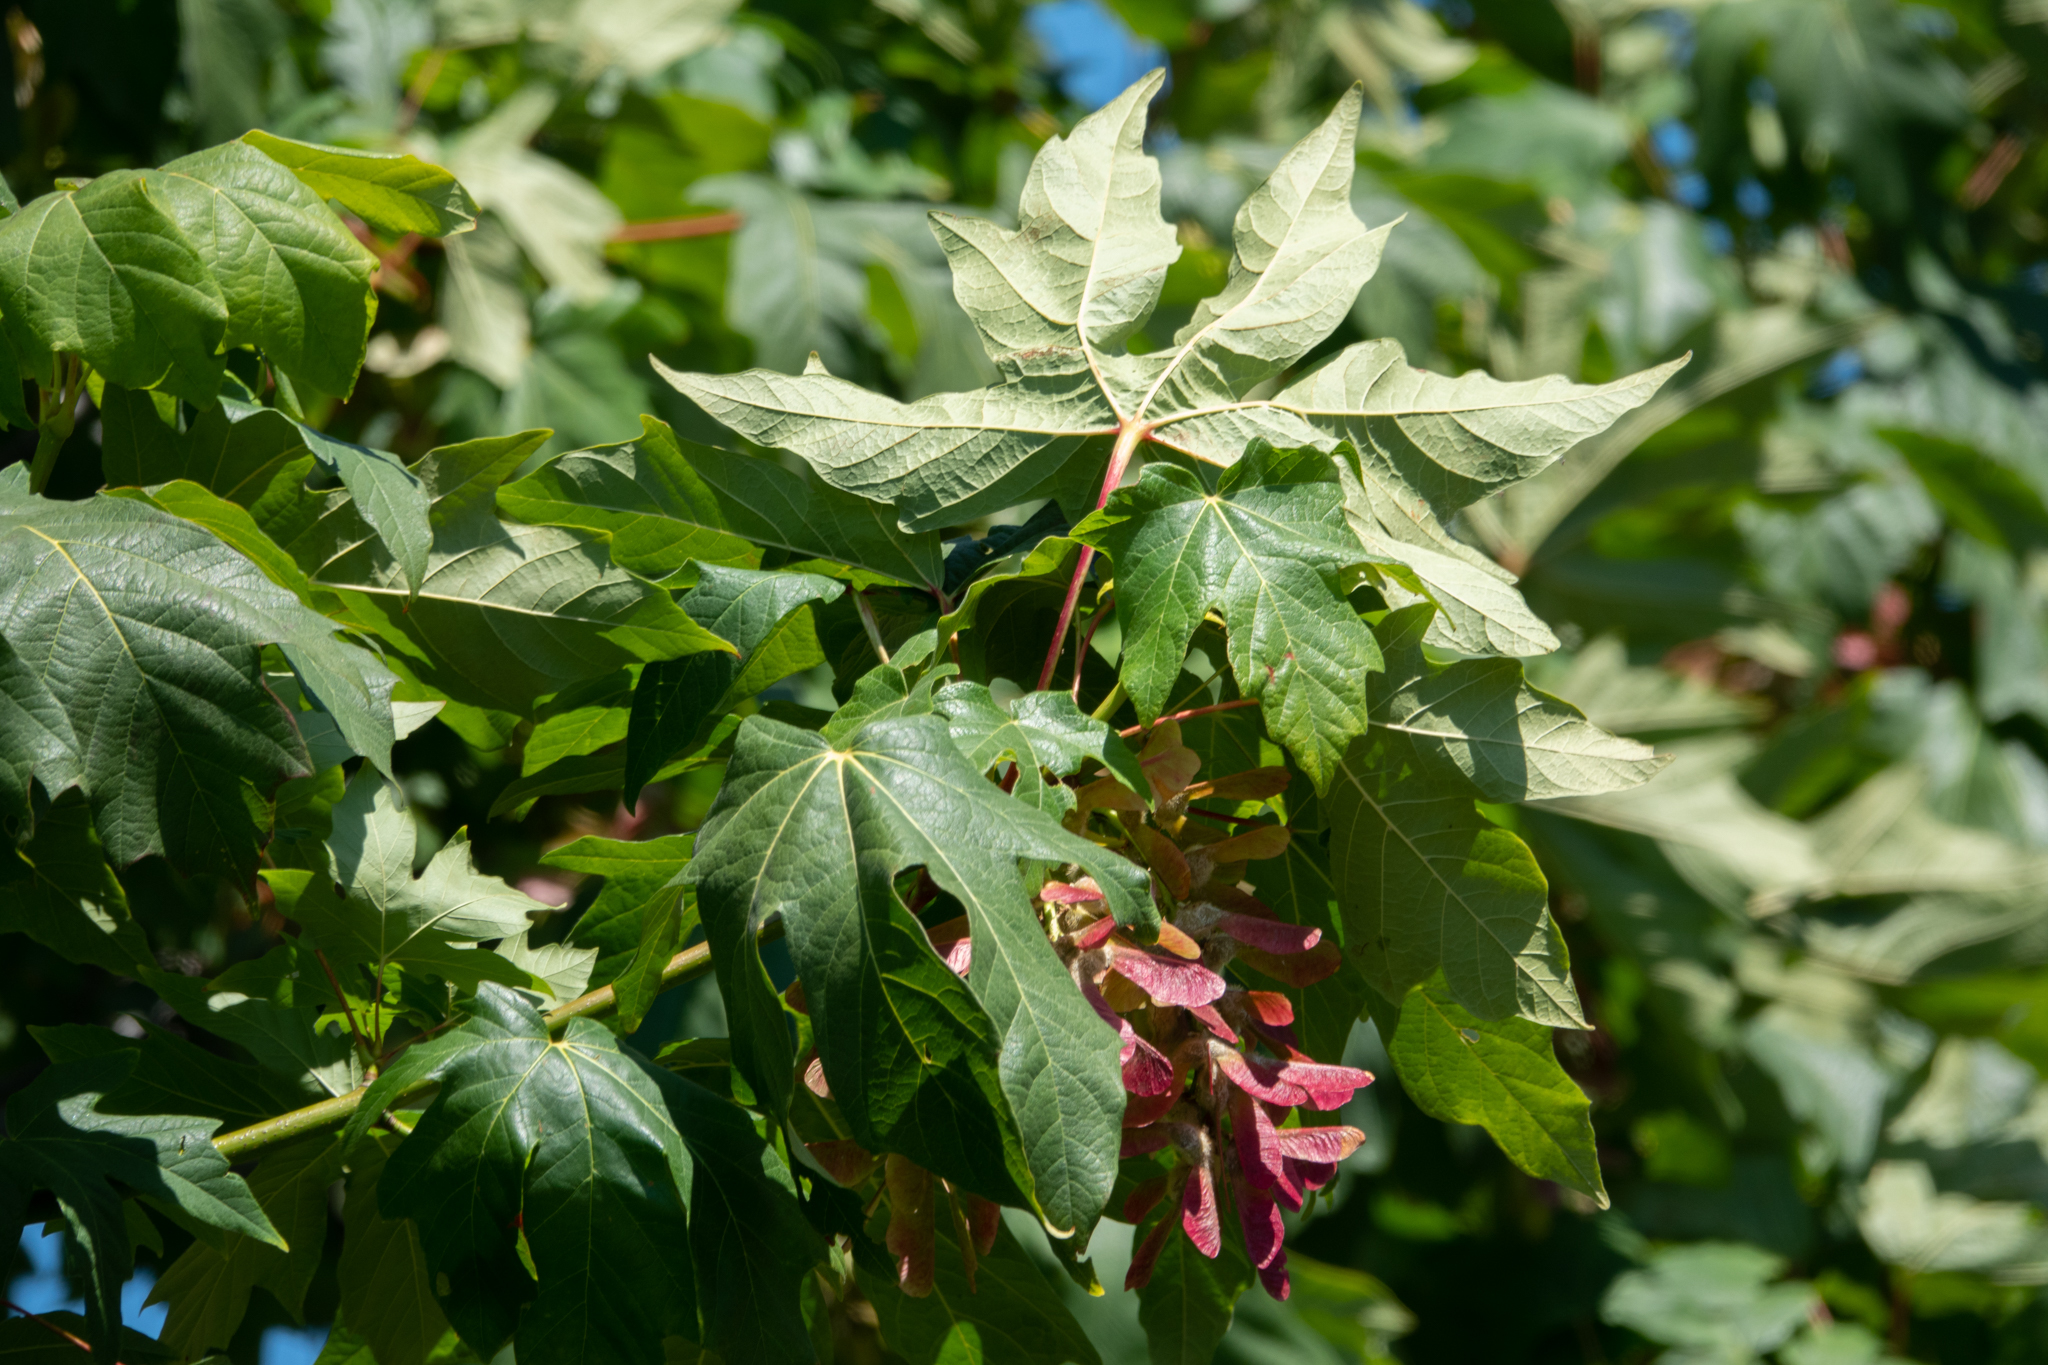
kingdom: Plantae
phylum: Tracheophyta
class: Magnoliopsida
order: Sapindales
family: Sapindaceae
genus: Acer
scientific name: Acer macrophyllum
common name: Oregon maple
